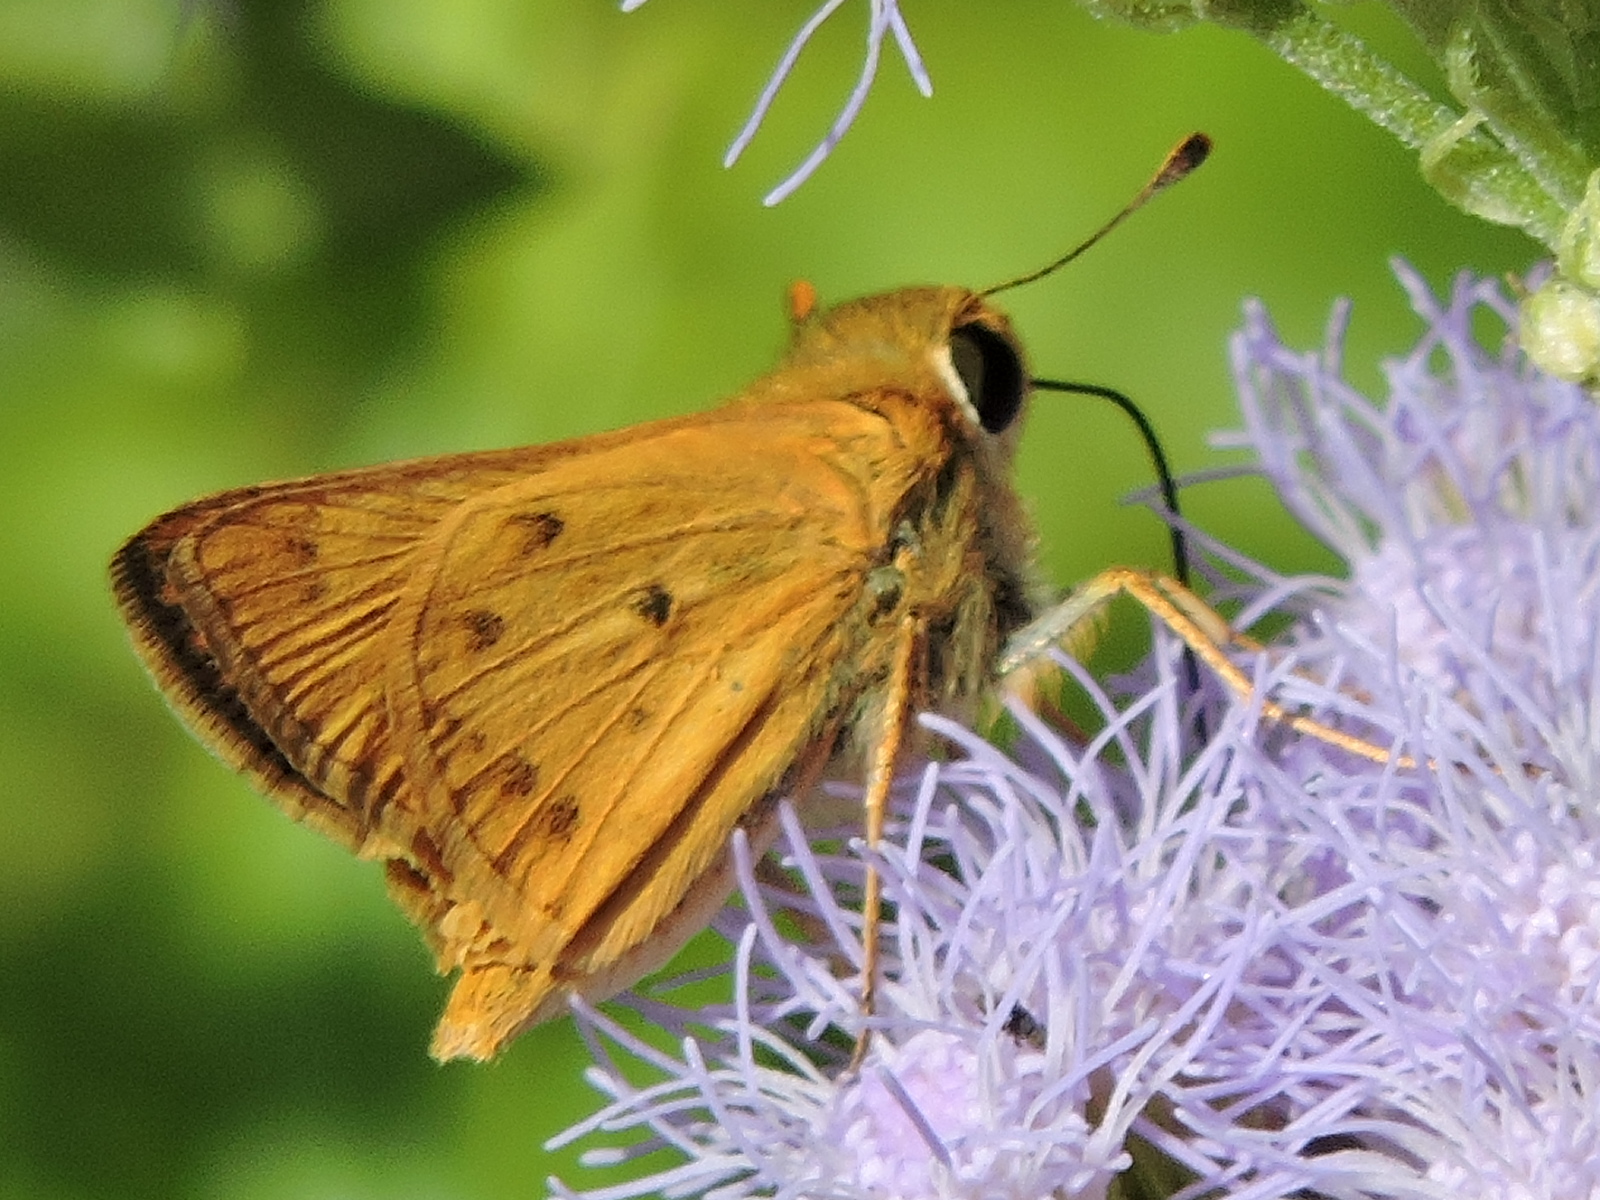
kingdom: Animalia
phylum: Arthropoda
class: Insecta
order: Lepidoptera
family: Hesperiidae
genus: Hylephila
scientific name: Hylephila phyleus
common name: Fiery skipper
